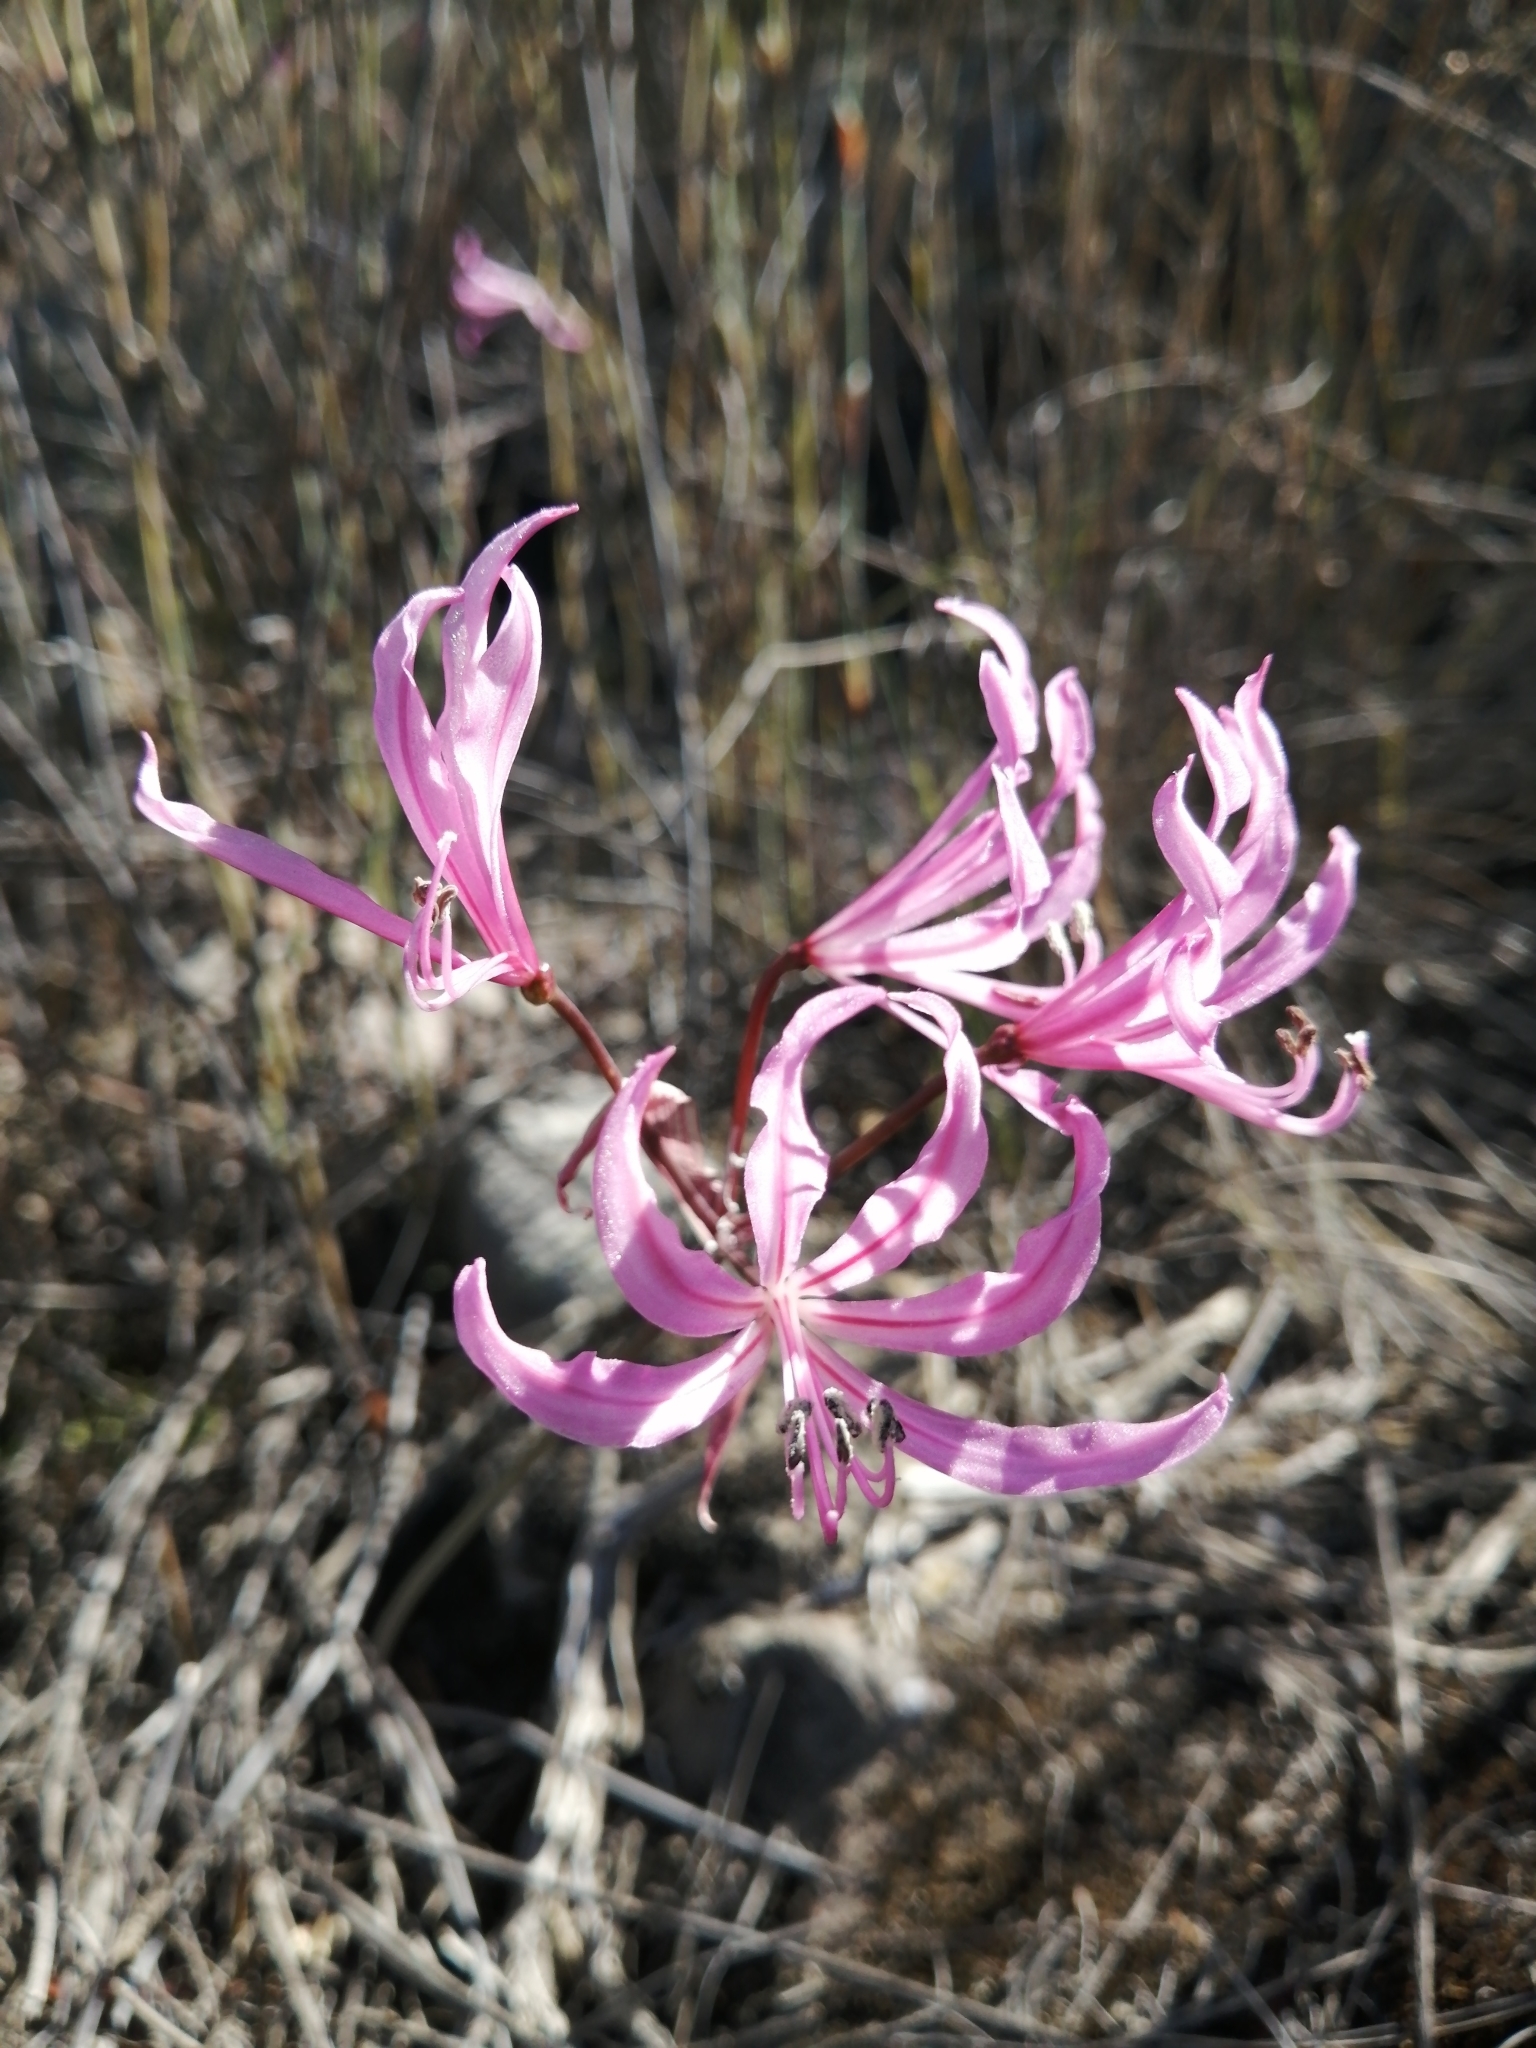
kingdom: Plantae
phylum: Tracheophyta
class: Liliopsida
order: Asparagales
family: Amaryllidaceae
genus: Nerine
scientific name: Nerine humilis
